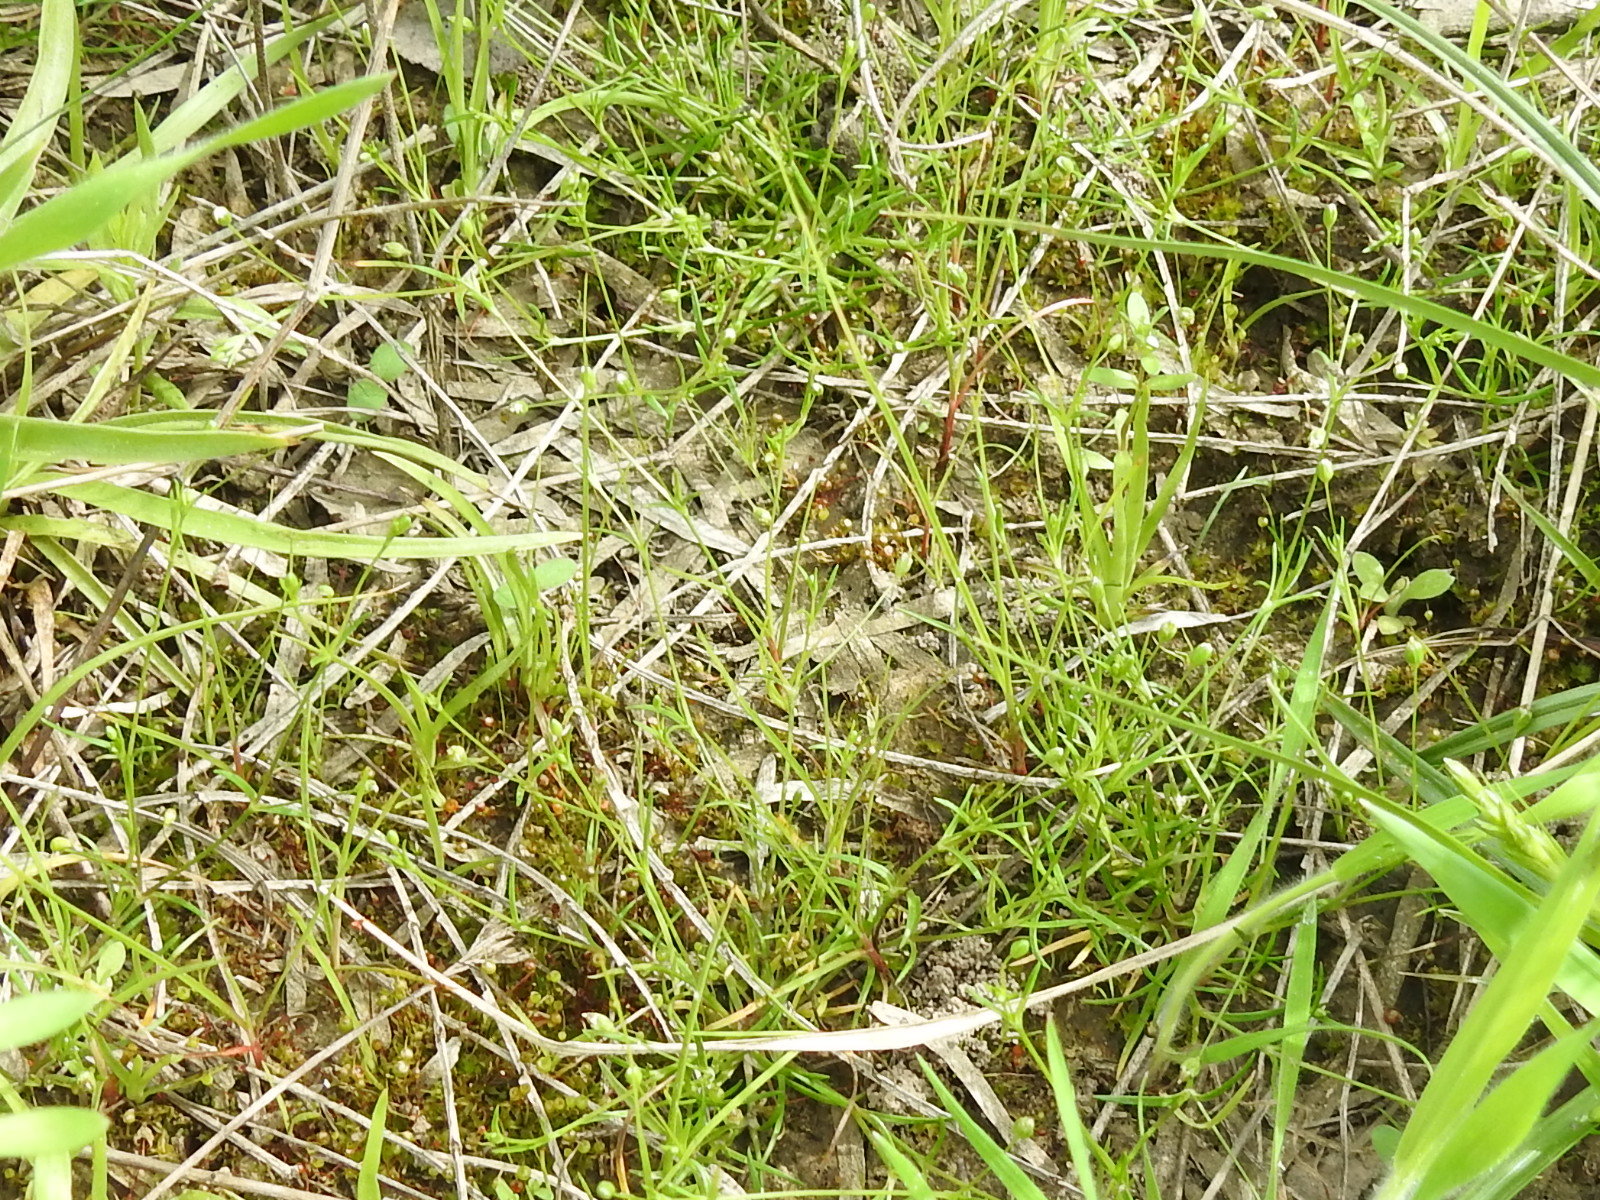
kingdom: Plantae
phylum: Tracheophyta
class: Magnoliopsida
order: Caryophyllales
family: Caryophyllaceae
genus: Sagina
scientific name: Sagina decumbens
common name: Decumbent pearlwort
